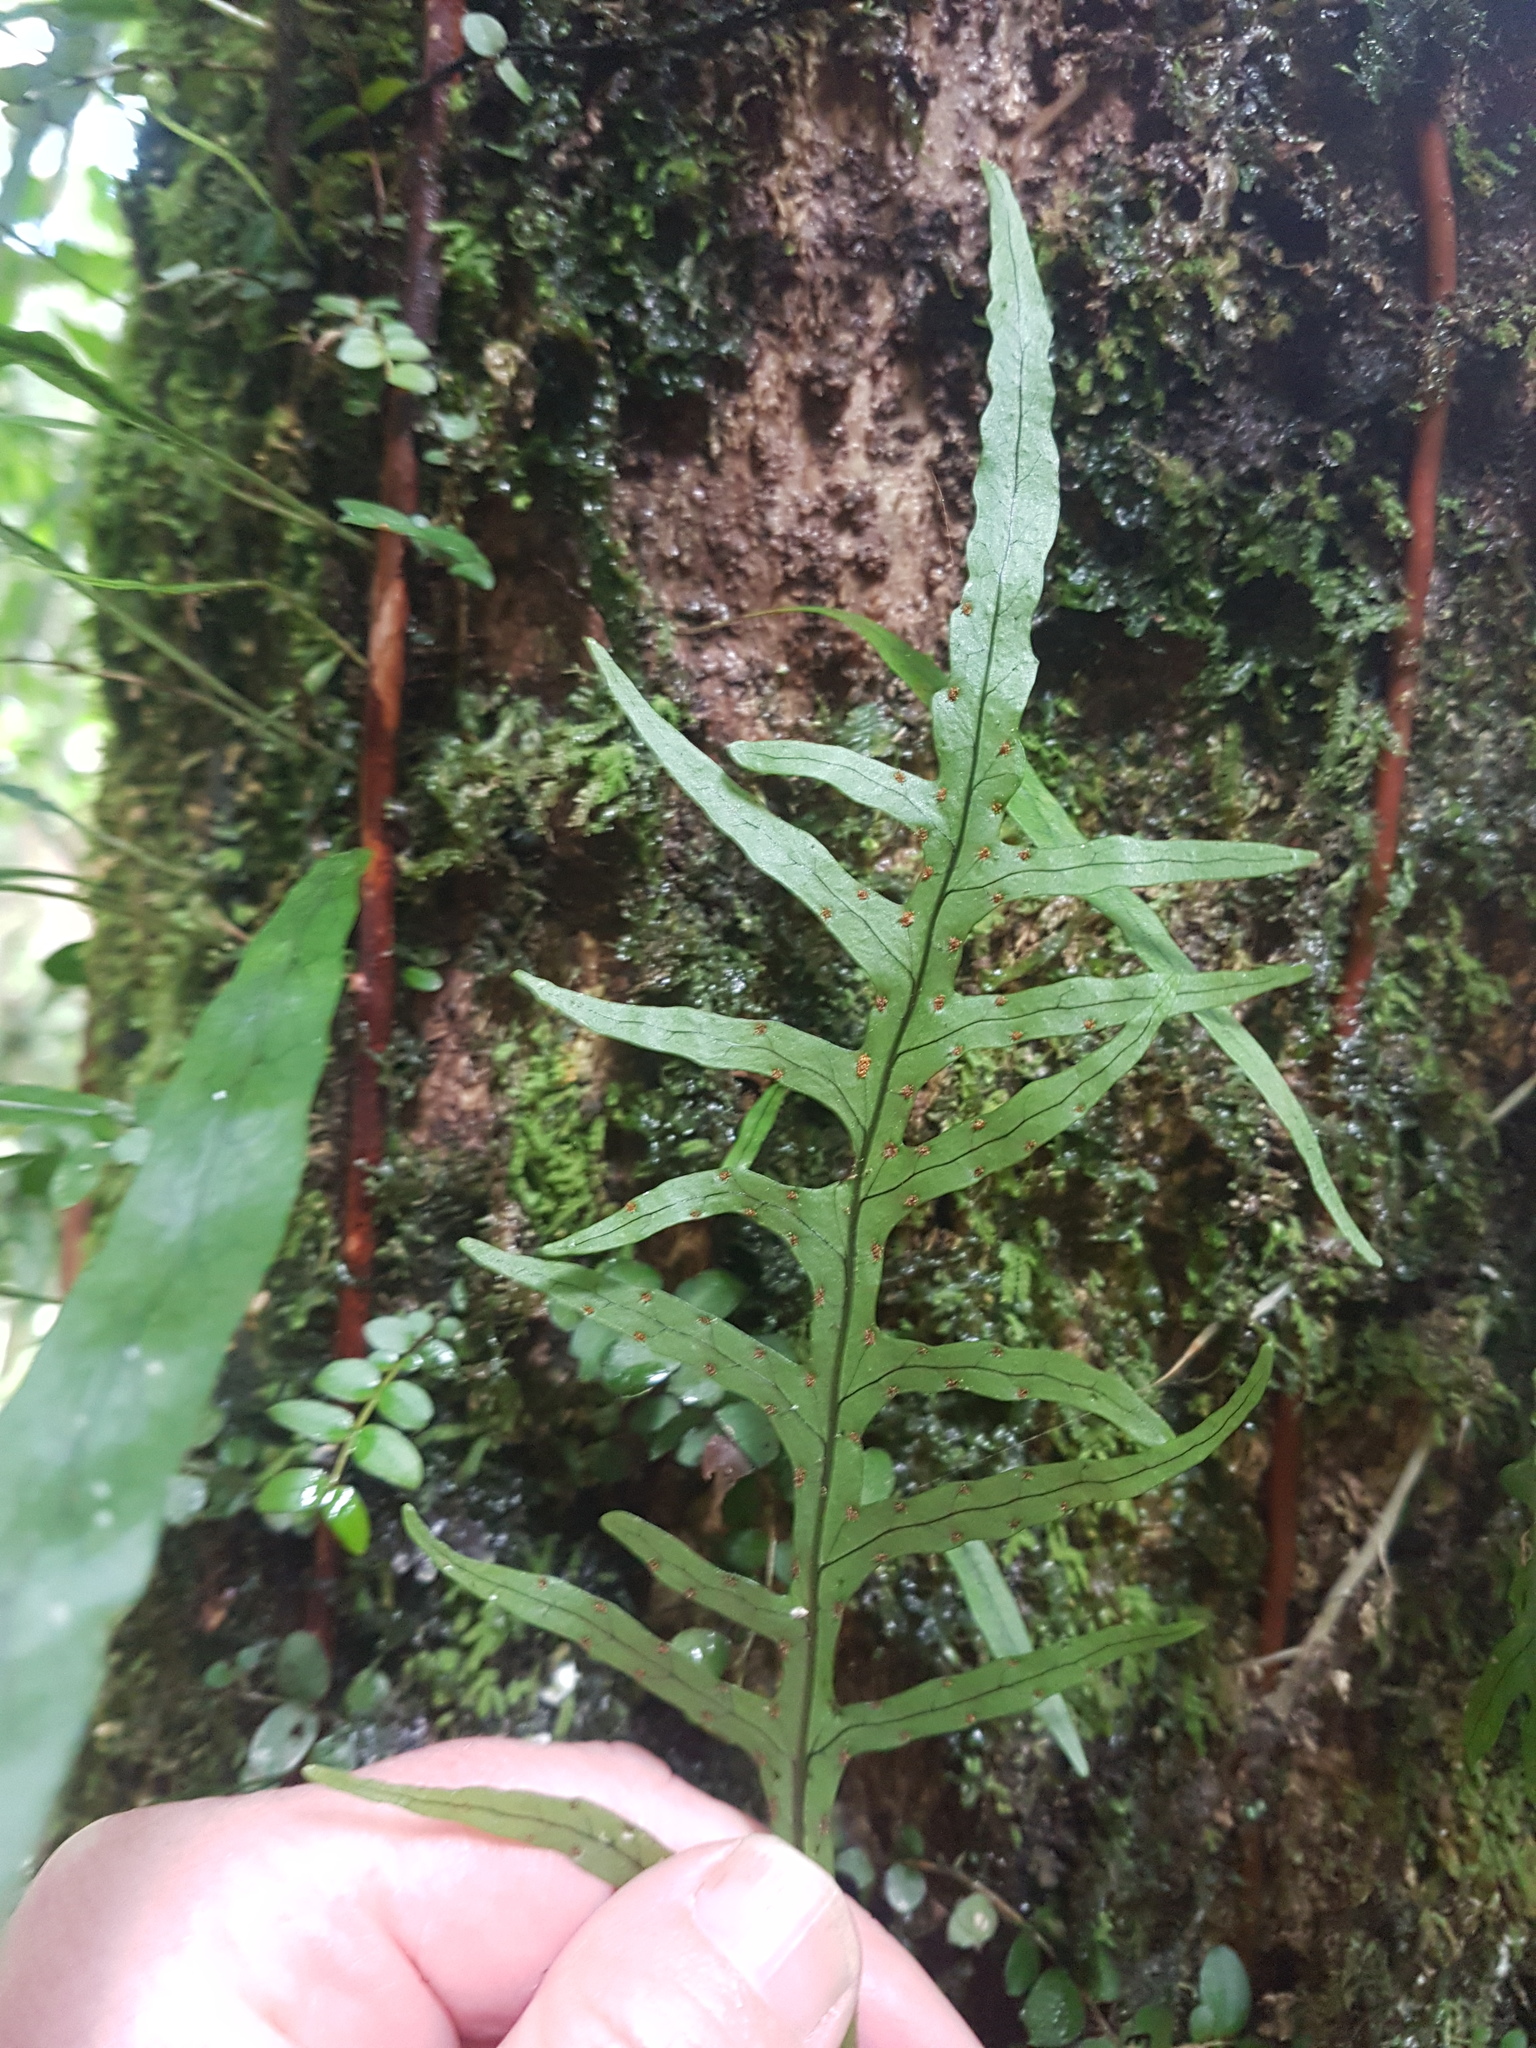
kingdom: Plantae
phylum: Tracheophyta
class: Polypodiopsida
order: Polypodiales
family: Polypodiaceae
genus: Lecanopteris
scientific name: Lecanopteris scandens
